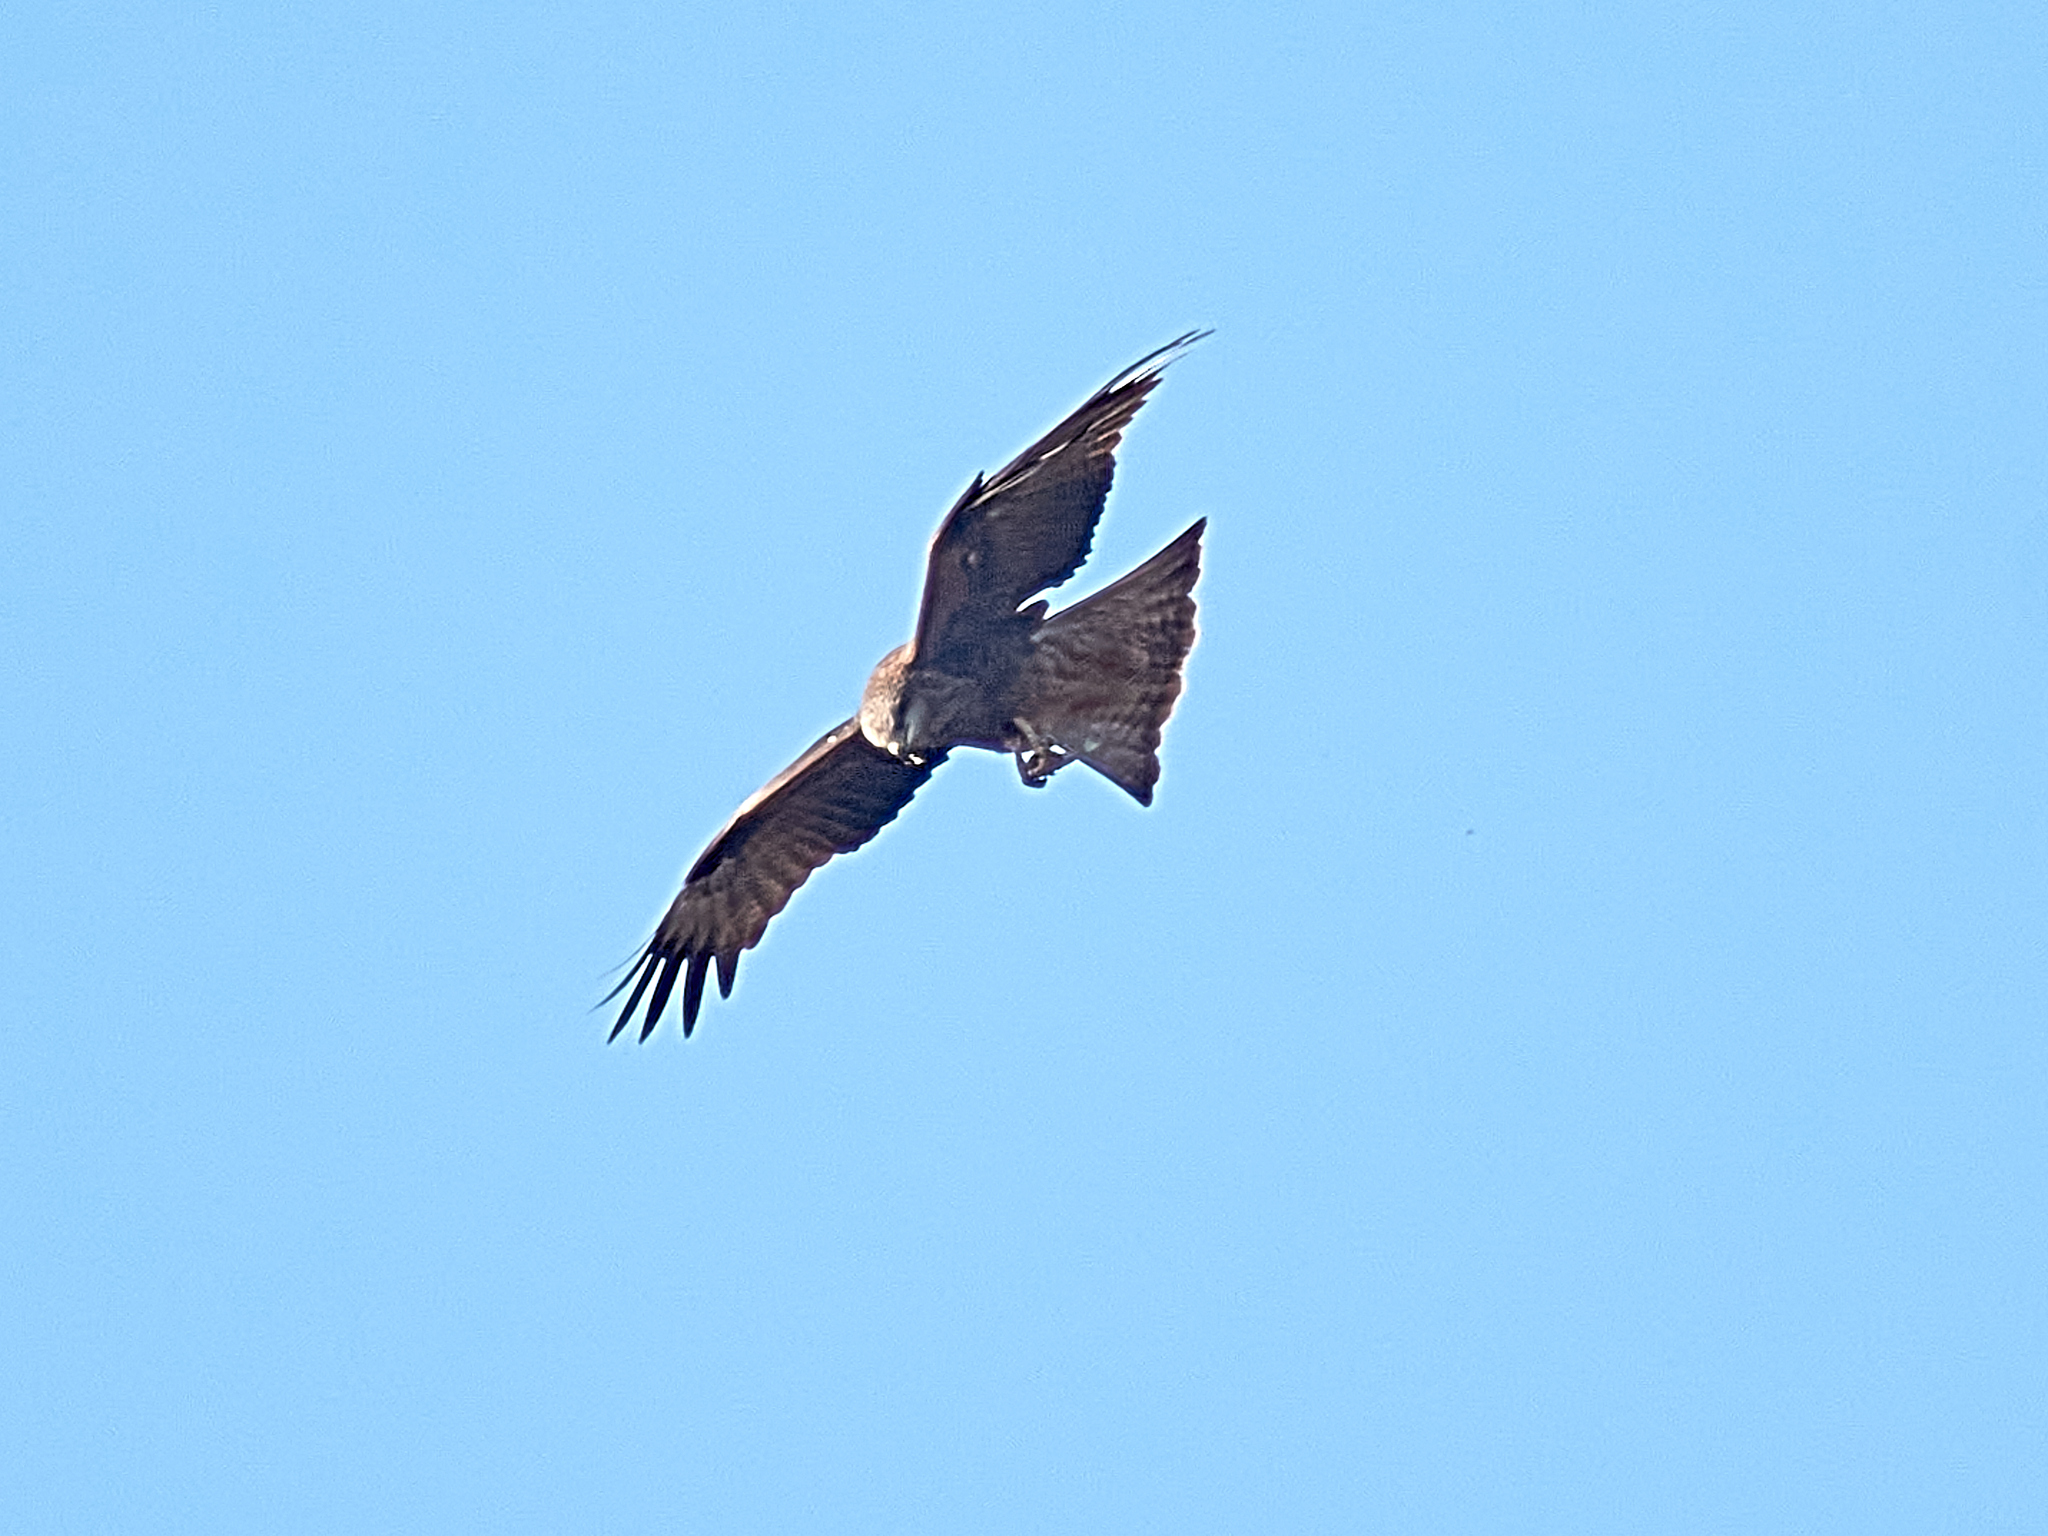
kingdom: Animalia
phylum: Chordata
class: Aves
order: Accipitriformes
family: Accipitridae
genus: Milvus
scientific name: Milvus migrans
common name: Black kite
